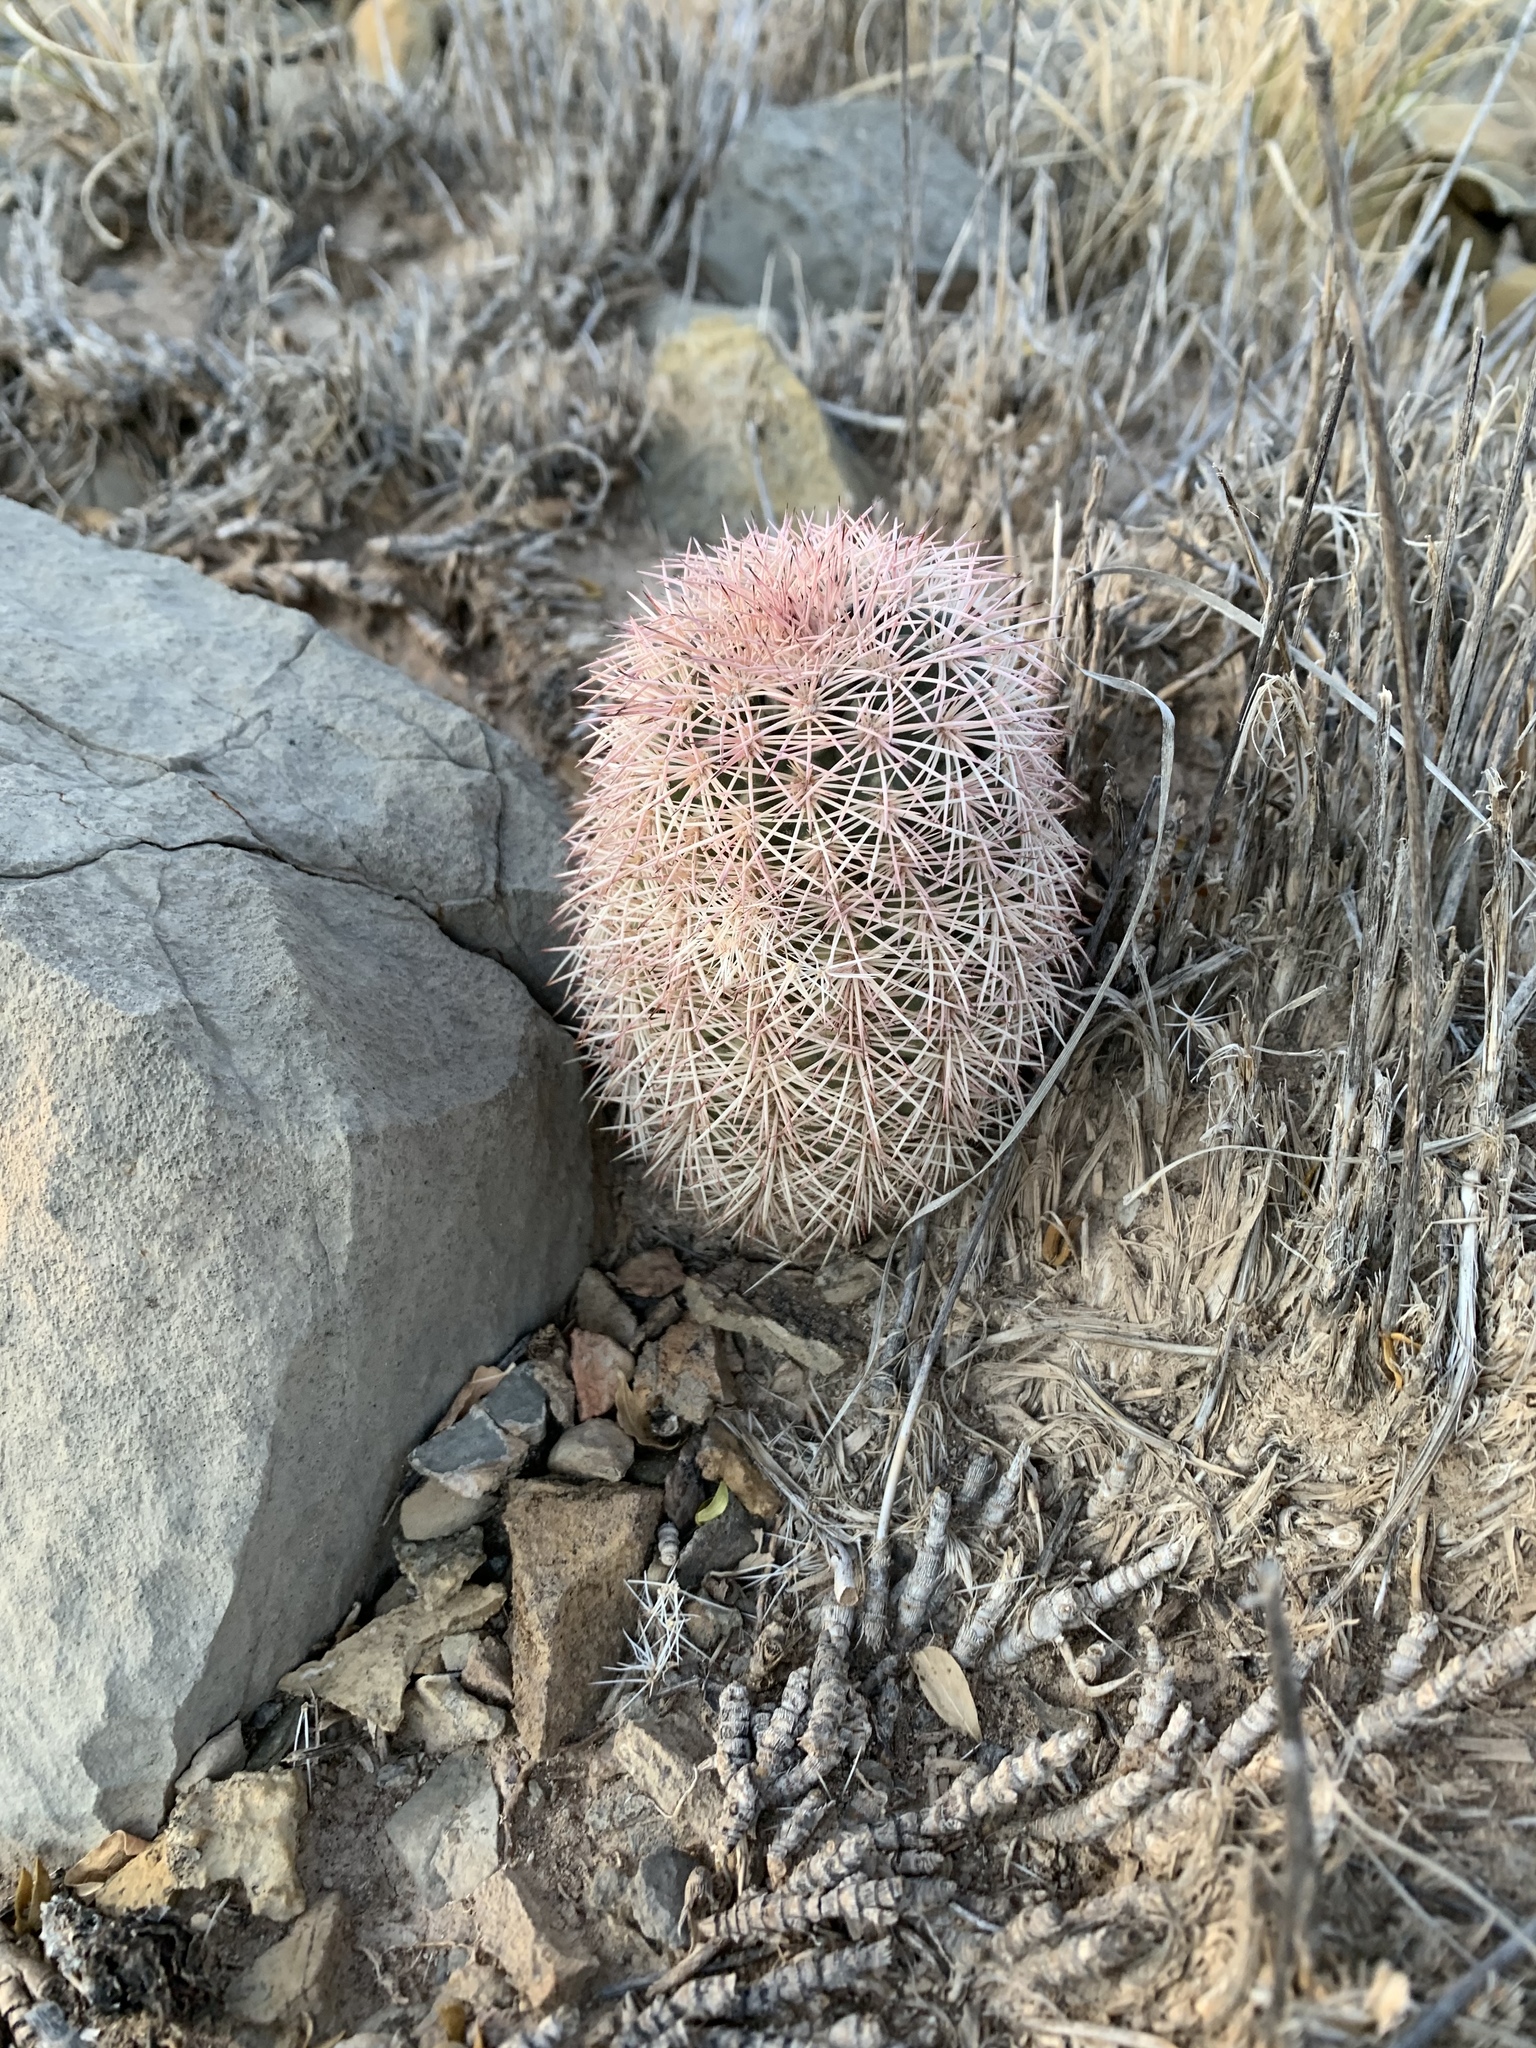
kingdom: Plantae
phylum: Tracheophyta
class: Magnoliopsida
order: Caryophyllales
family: Cactaceae
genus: Echinocereus
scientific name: Echinocereus dasyacanthus
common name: Spiny hedgehog cactus
